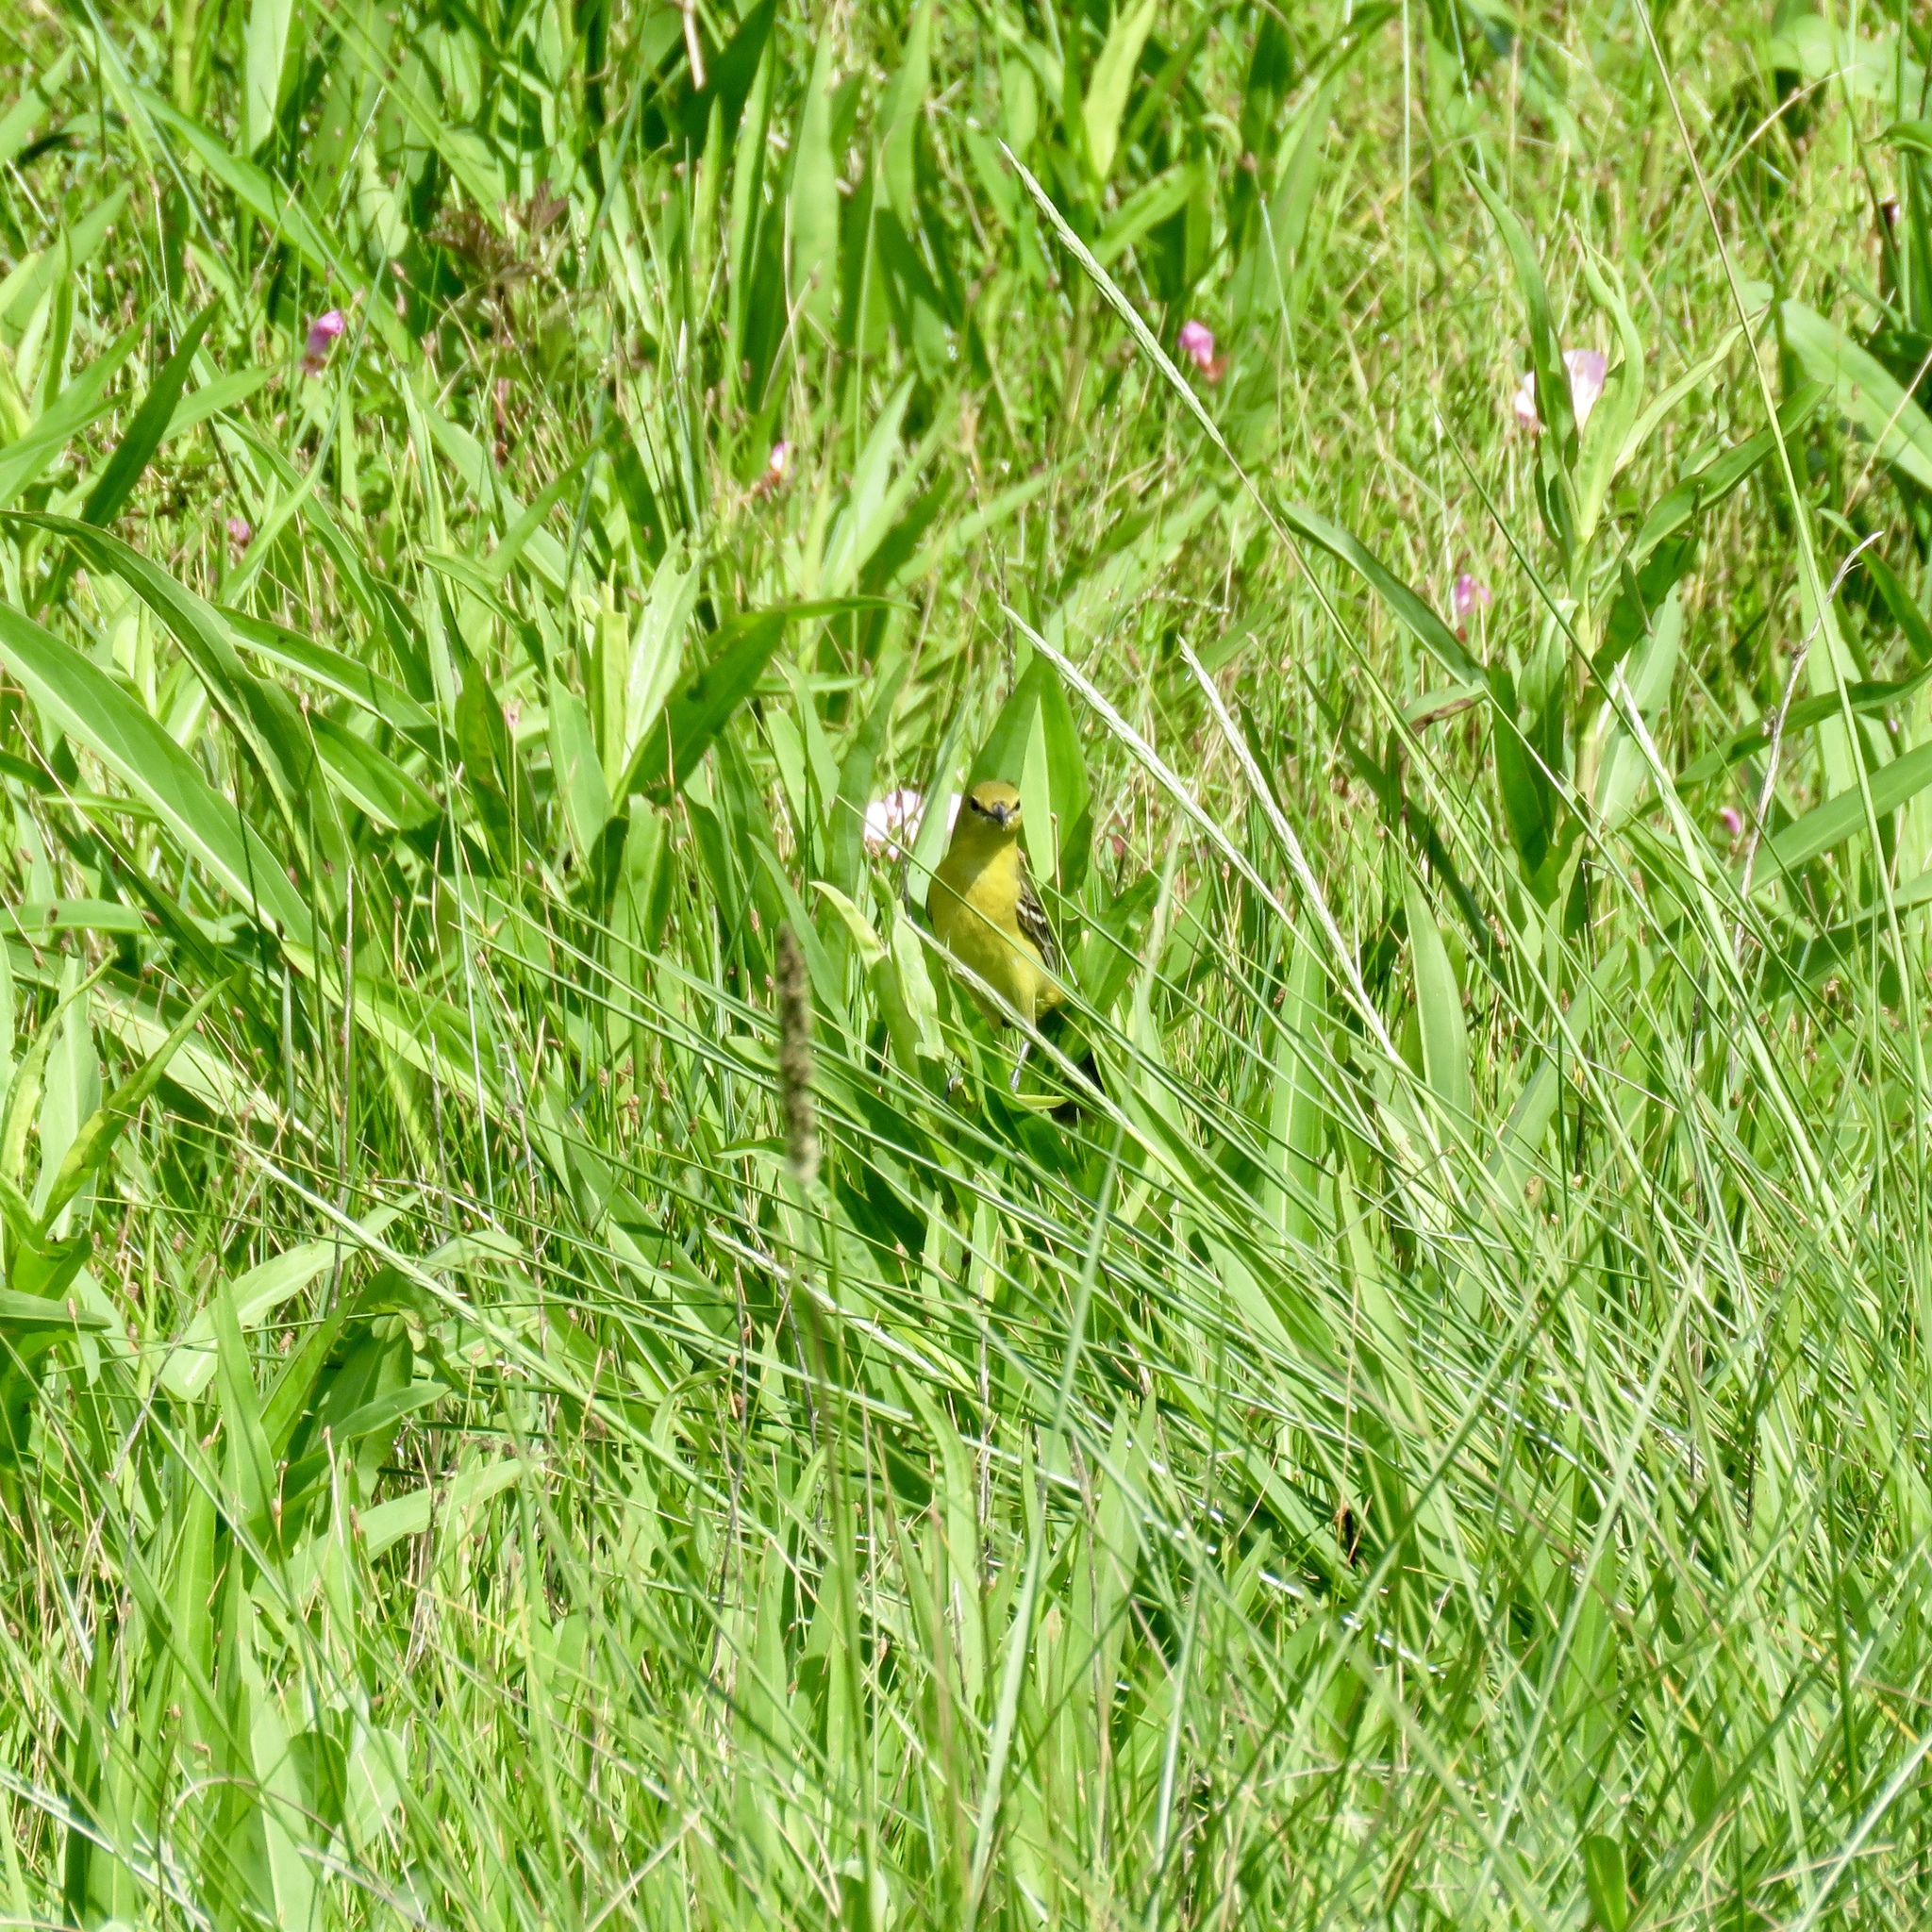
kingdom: Animalia
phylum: Chordata
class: Aves
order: Passeriformes
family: Icteridae
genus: Icterus
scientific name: Icterus spurius
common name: Orchard oriole
